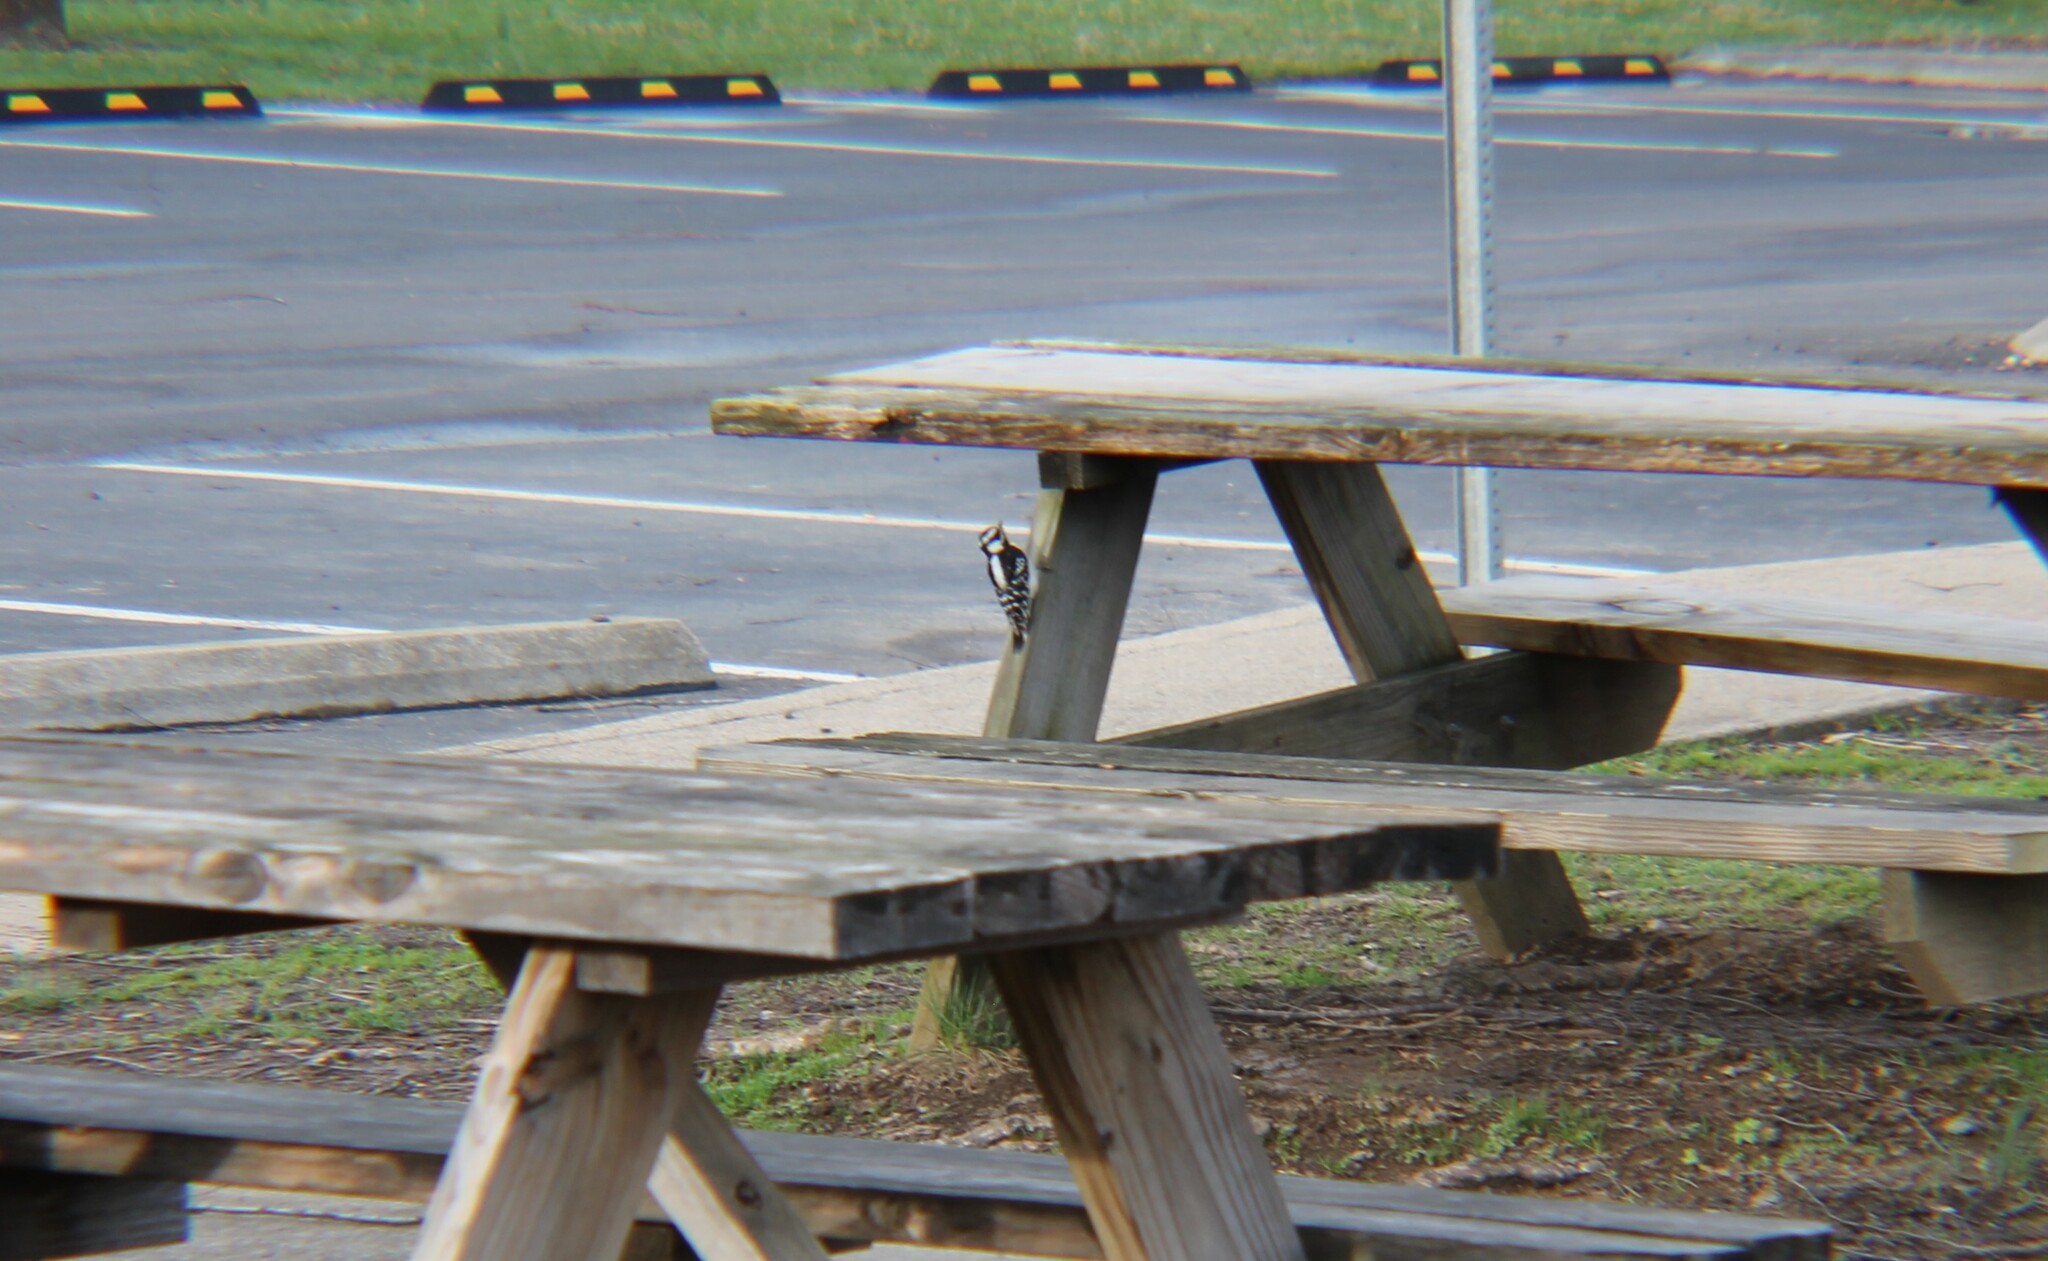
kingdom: Animalia
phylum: Chordata
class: Aves
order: Piciformes
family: Picidae
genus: Dryobates
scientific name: Dryobates pubescens
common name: Downy woodpecker
